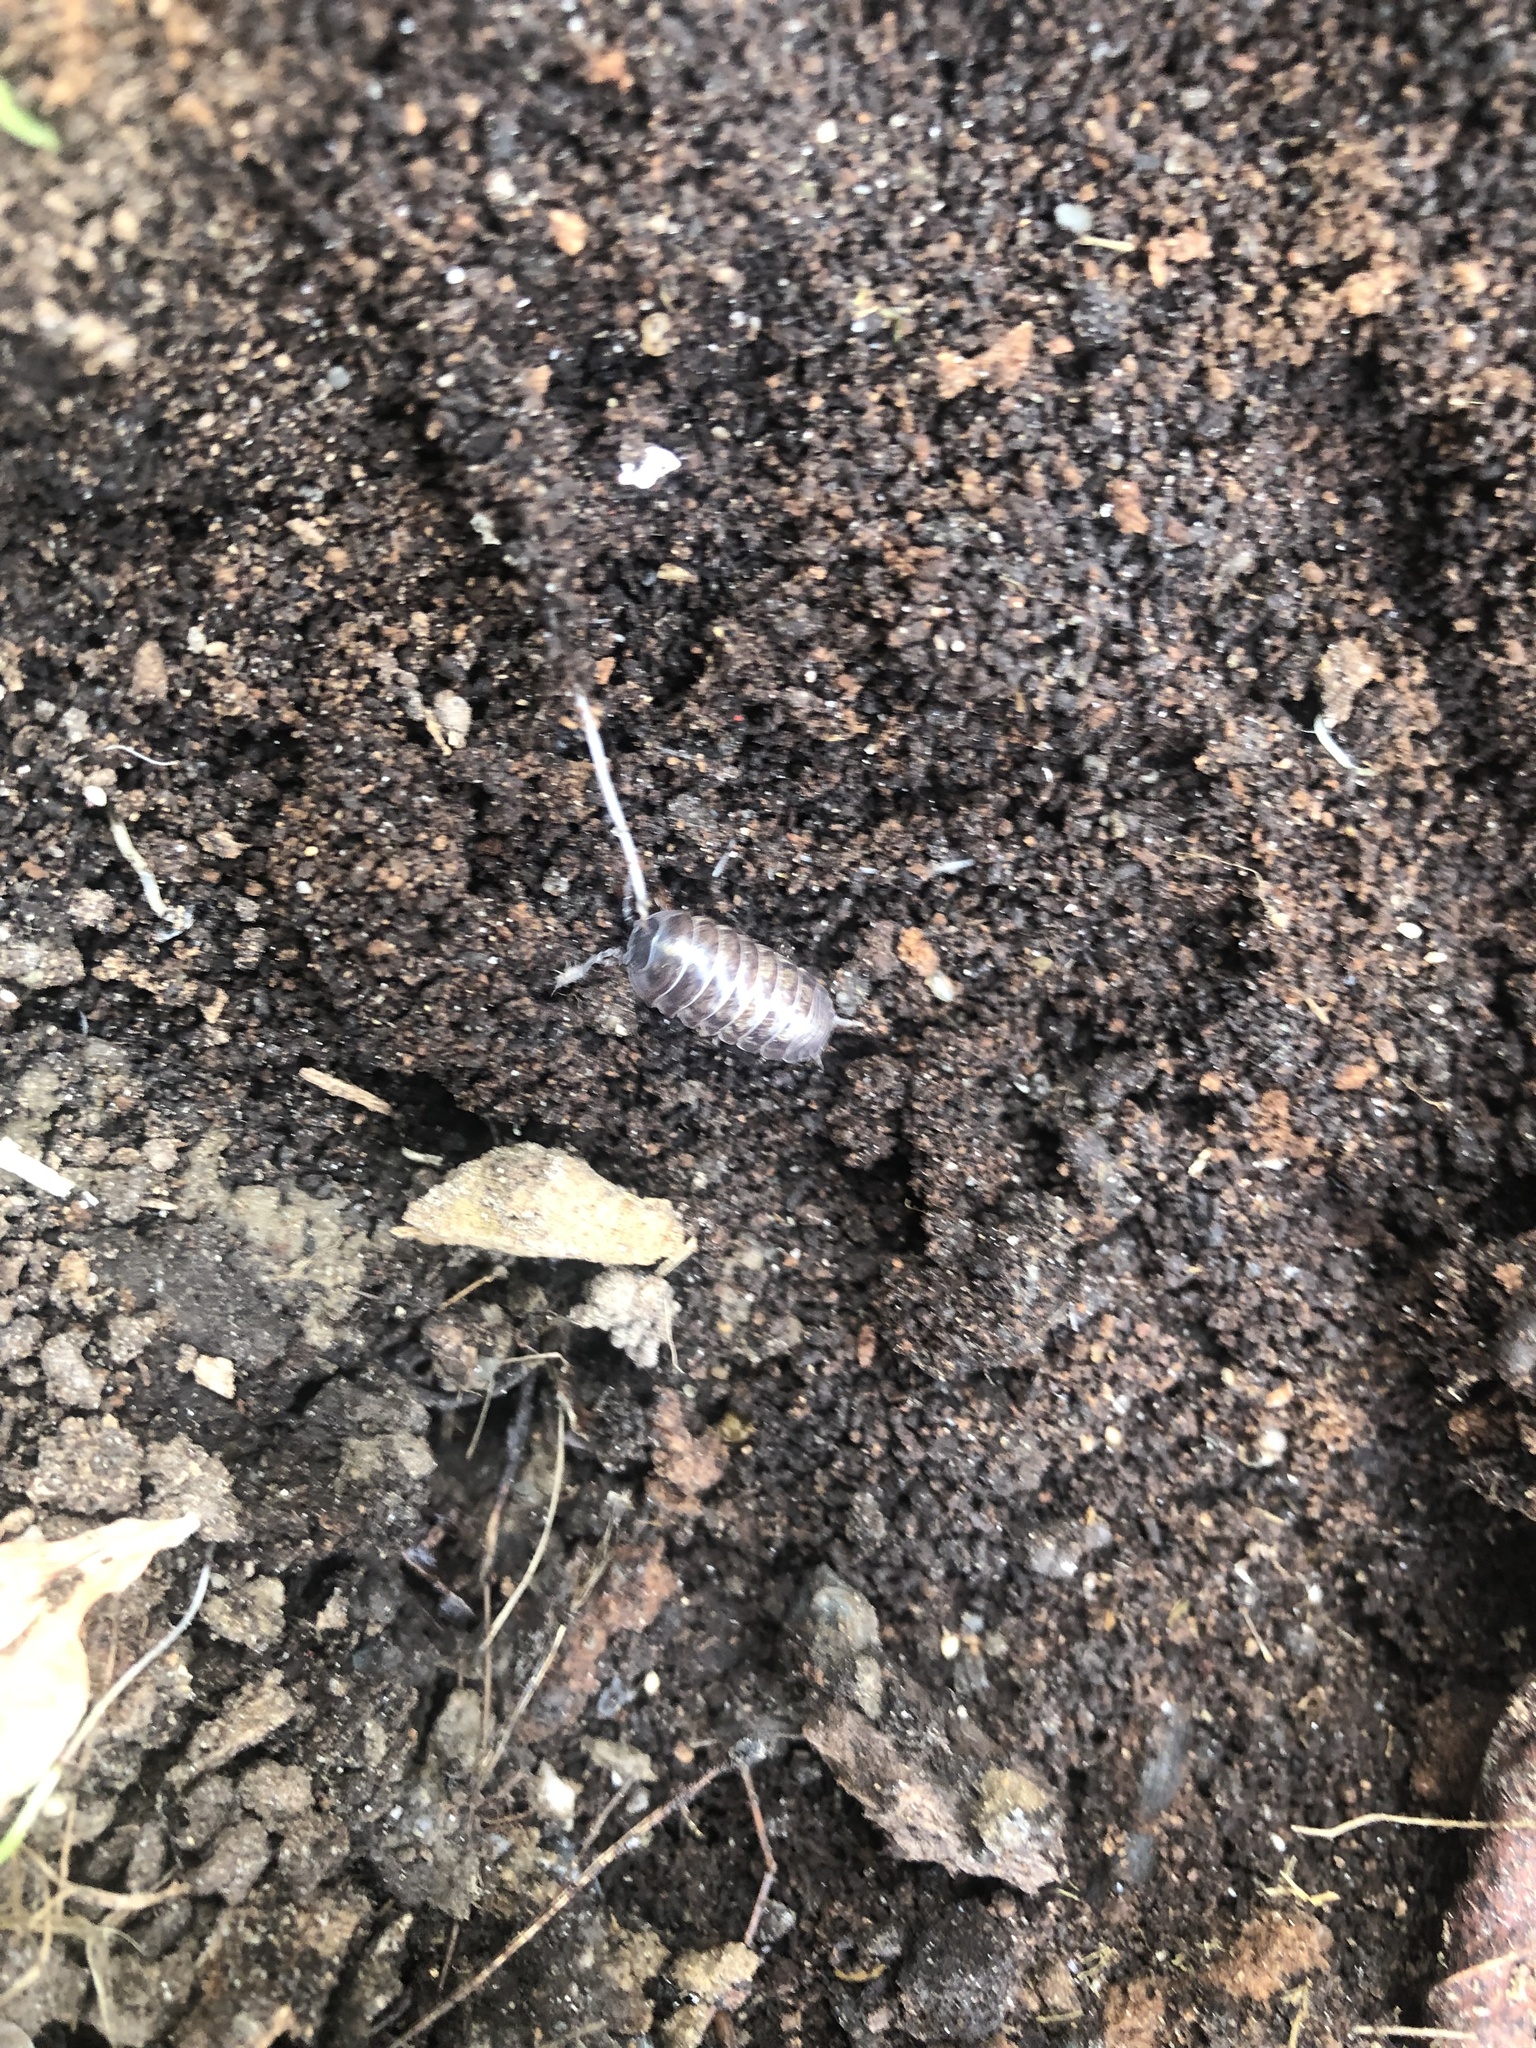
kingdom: Animalia
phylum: Arthropoda
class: Malacostraca
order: Isopoda
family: Armadillidiidae
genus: Armadillidium
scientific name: Armadillidium vulgare
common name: Common pill woodlouse
